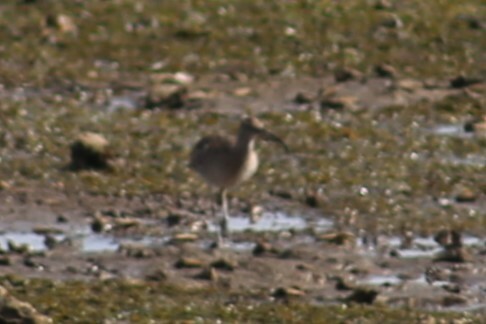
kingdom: Animalia
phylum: Chordata
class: Aves
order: Charadriiformes
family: Scolopacidae
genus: Numenius
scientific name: Numenius phaeopus
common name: Whimbrel
